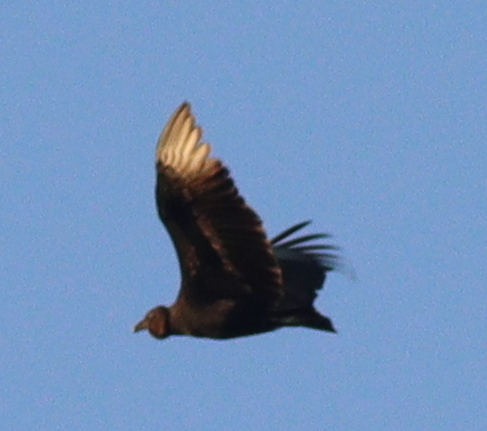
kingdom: Animalia
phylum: Chordata
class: Aves
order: Accipitriformes
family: Cathartidae
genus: Coragyps
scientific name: Coragyps atratus
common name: Black vulture
